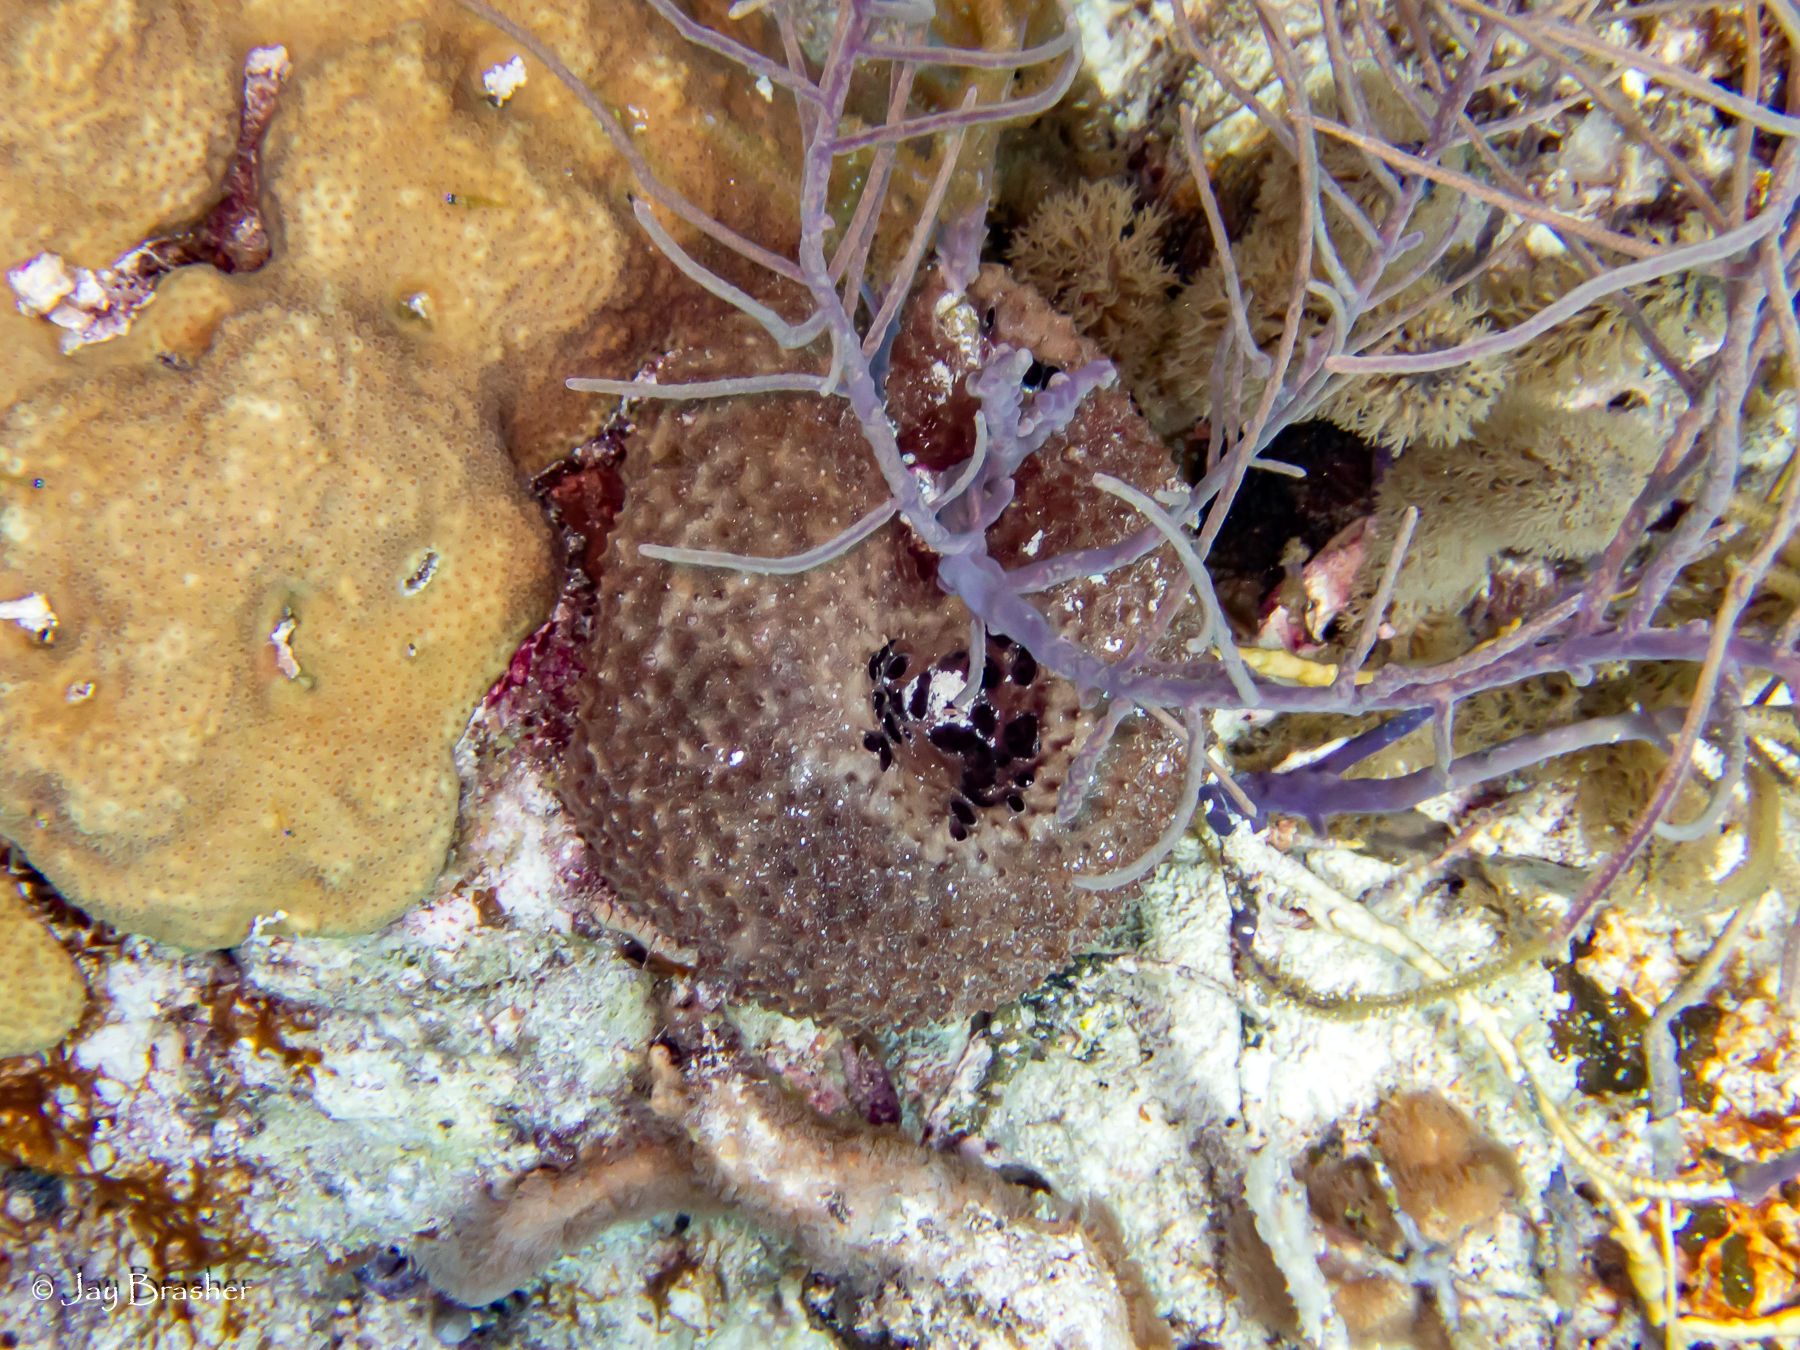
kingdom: Animalia
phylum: Porifera
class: Demospongiae
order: Dictyoceratida
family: Irciniidae
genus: Ircinia
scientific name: Ircinia felix
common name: Stinker sponge
